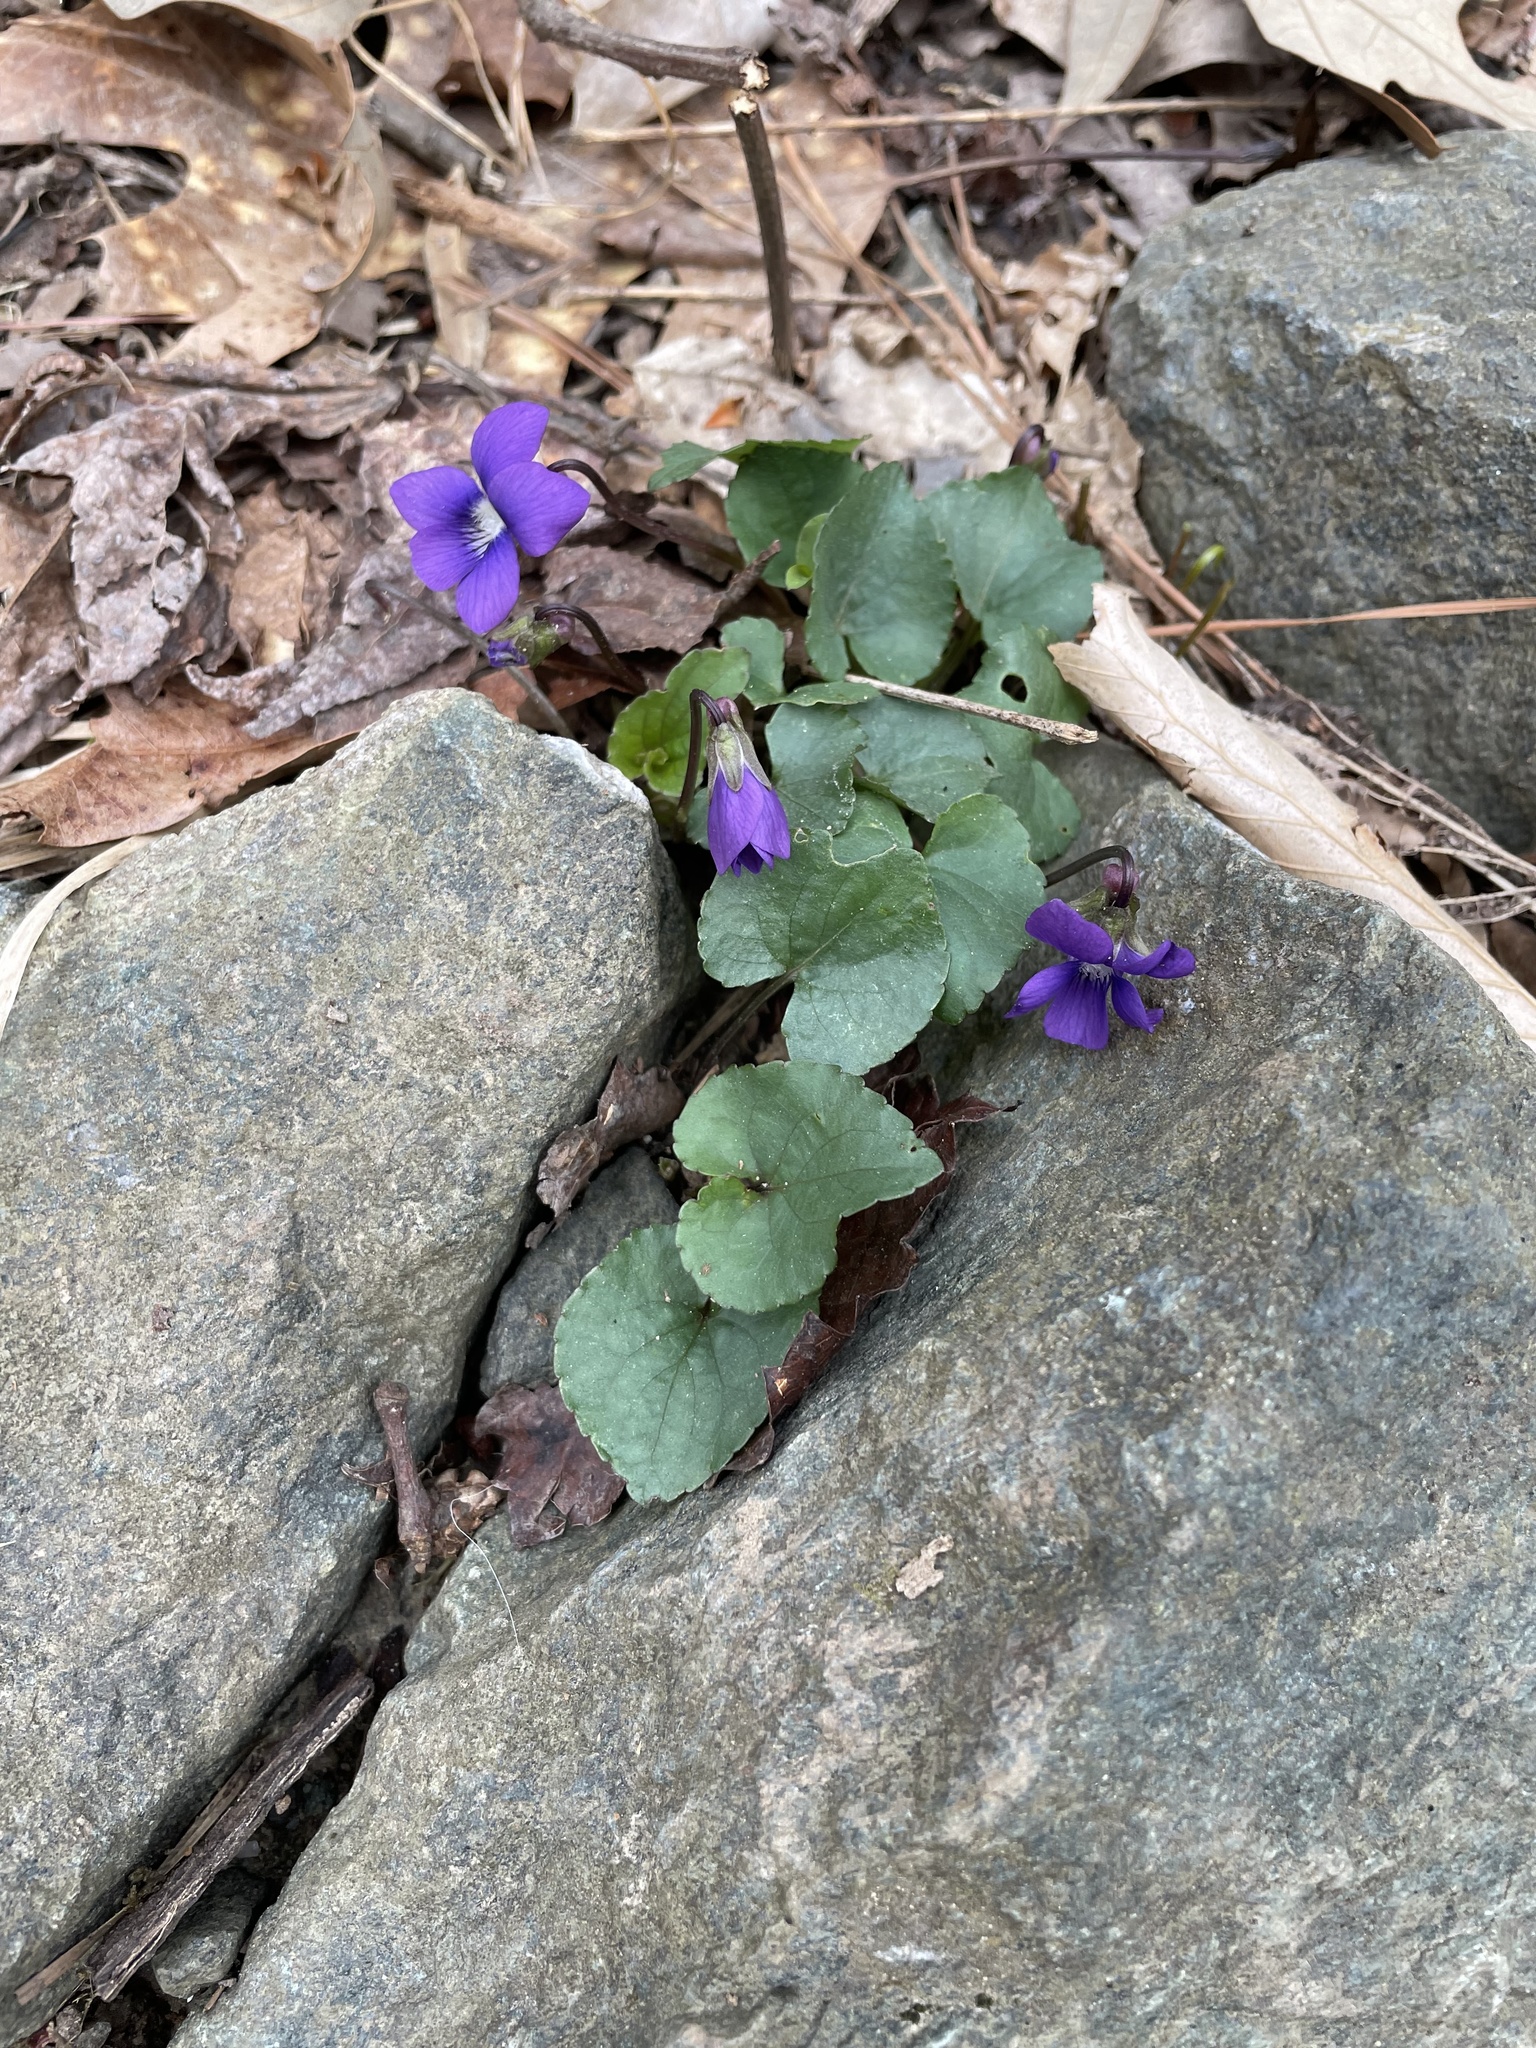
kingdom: Plantae
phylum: Tracheophyta
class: Magnoliopsida
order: Malpighiales
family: Violaceae
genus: Viola
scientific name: Viola sororia
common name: Dooryard violet
